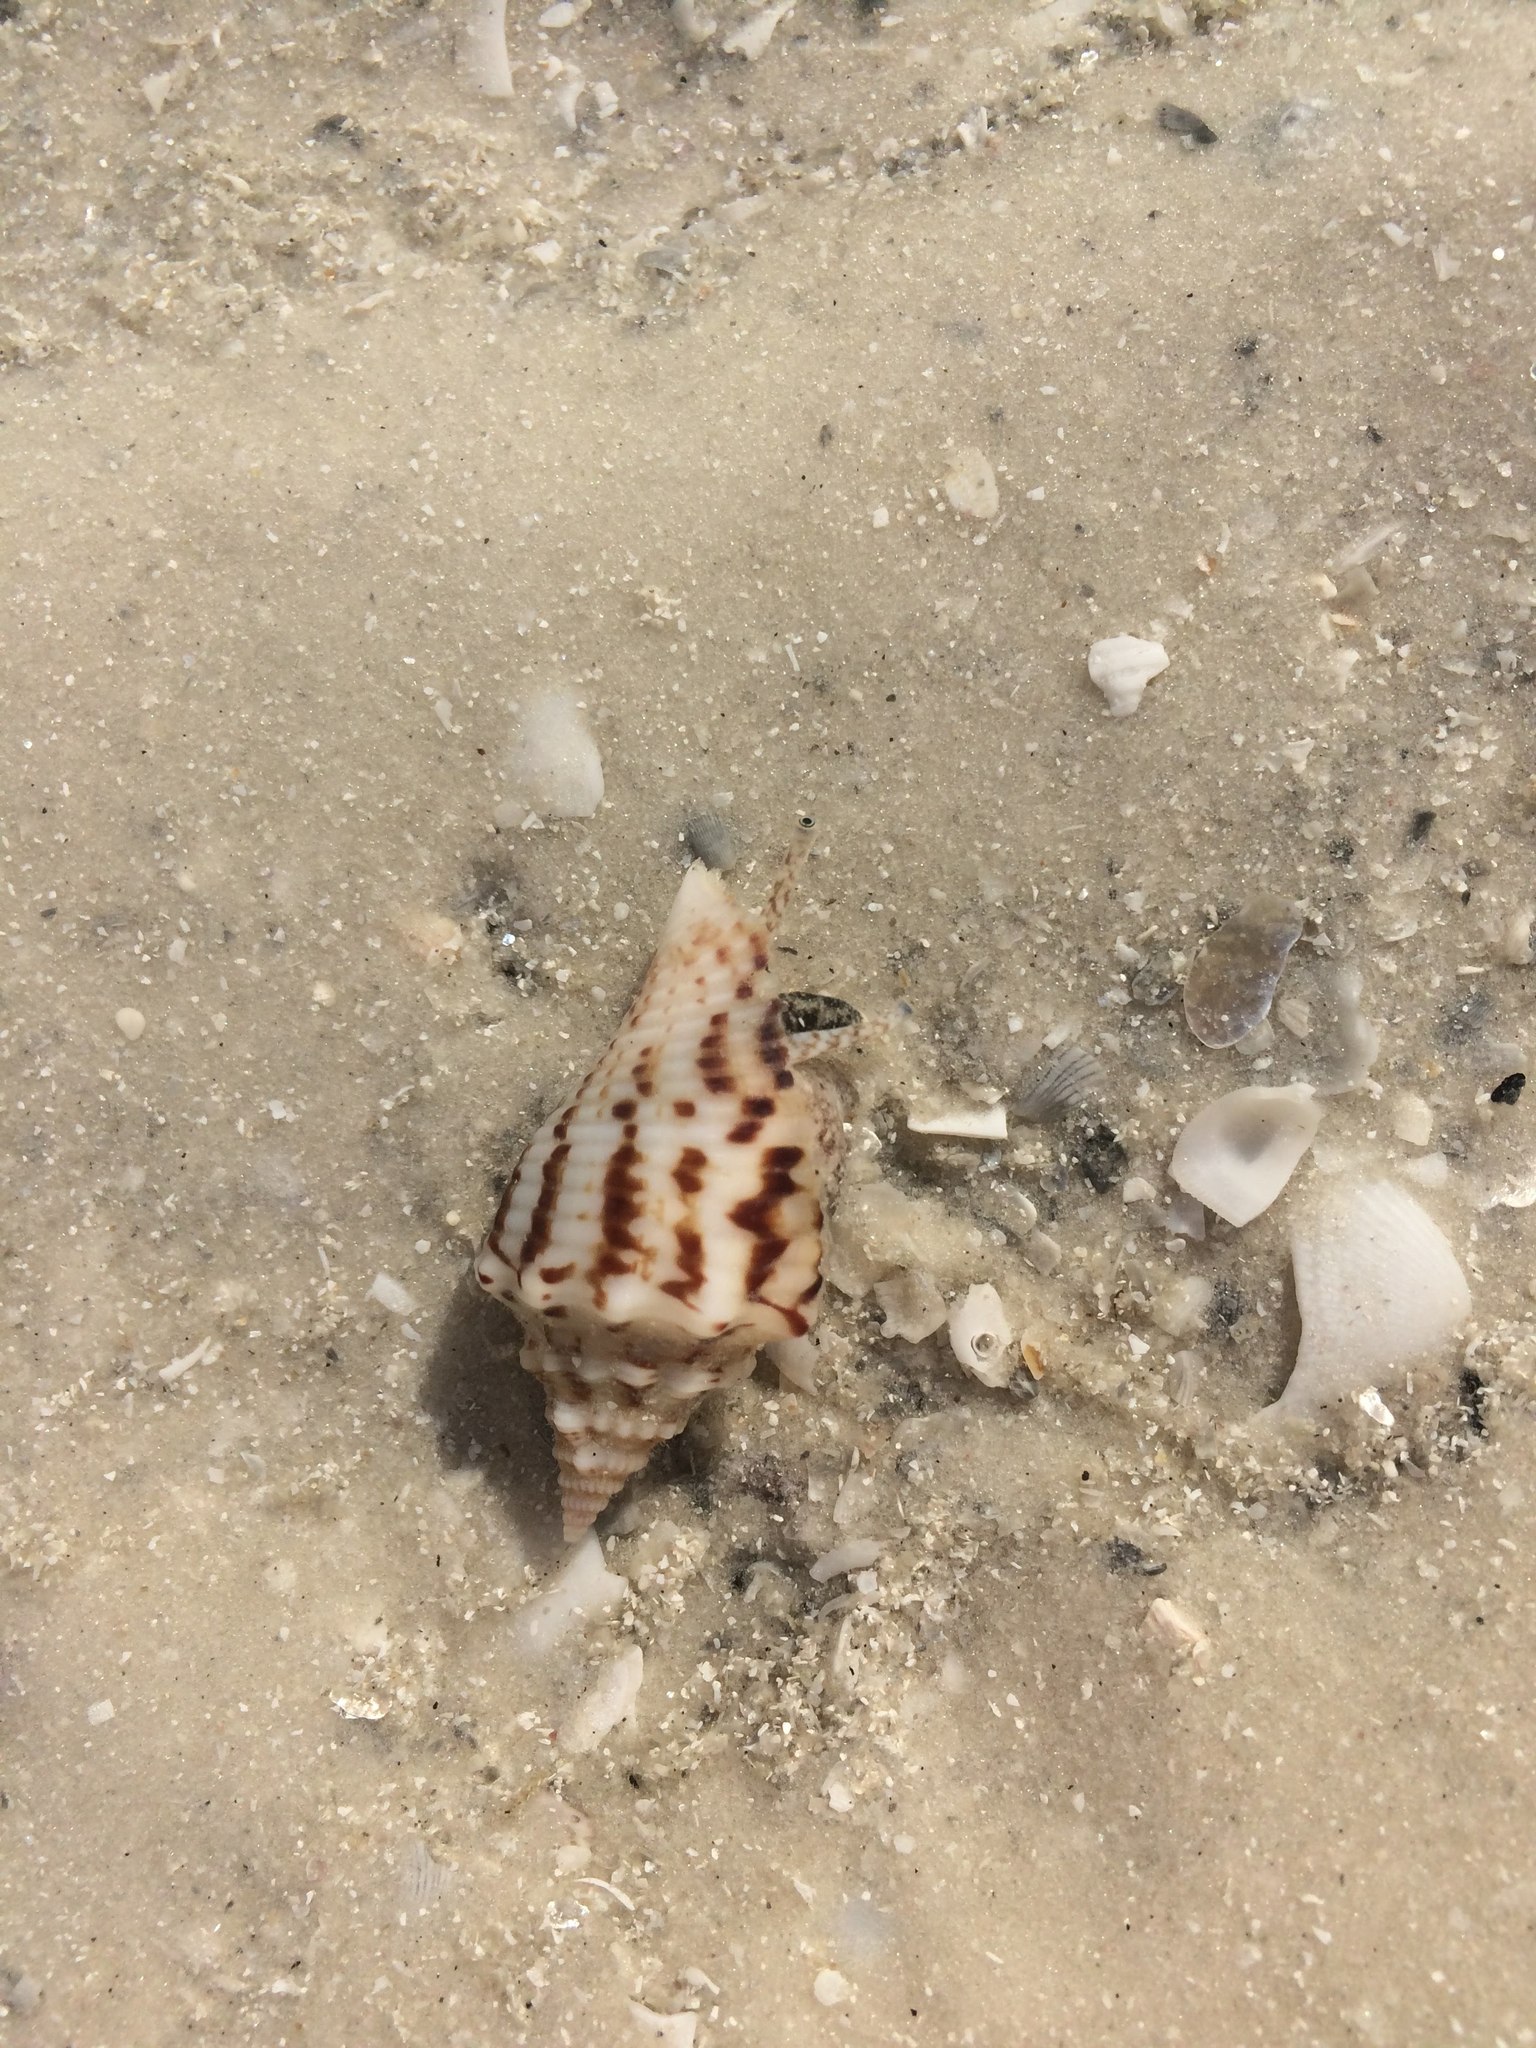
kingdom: Animalia
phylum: Mollusca
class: Gastropoda
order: Littorinimorpha
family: Strombidae
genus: Strombus
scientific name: Strombus alatus
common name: Florida fighting conch
